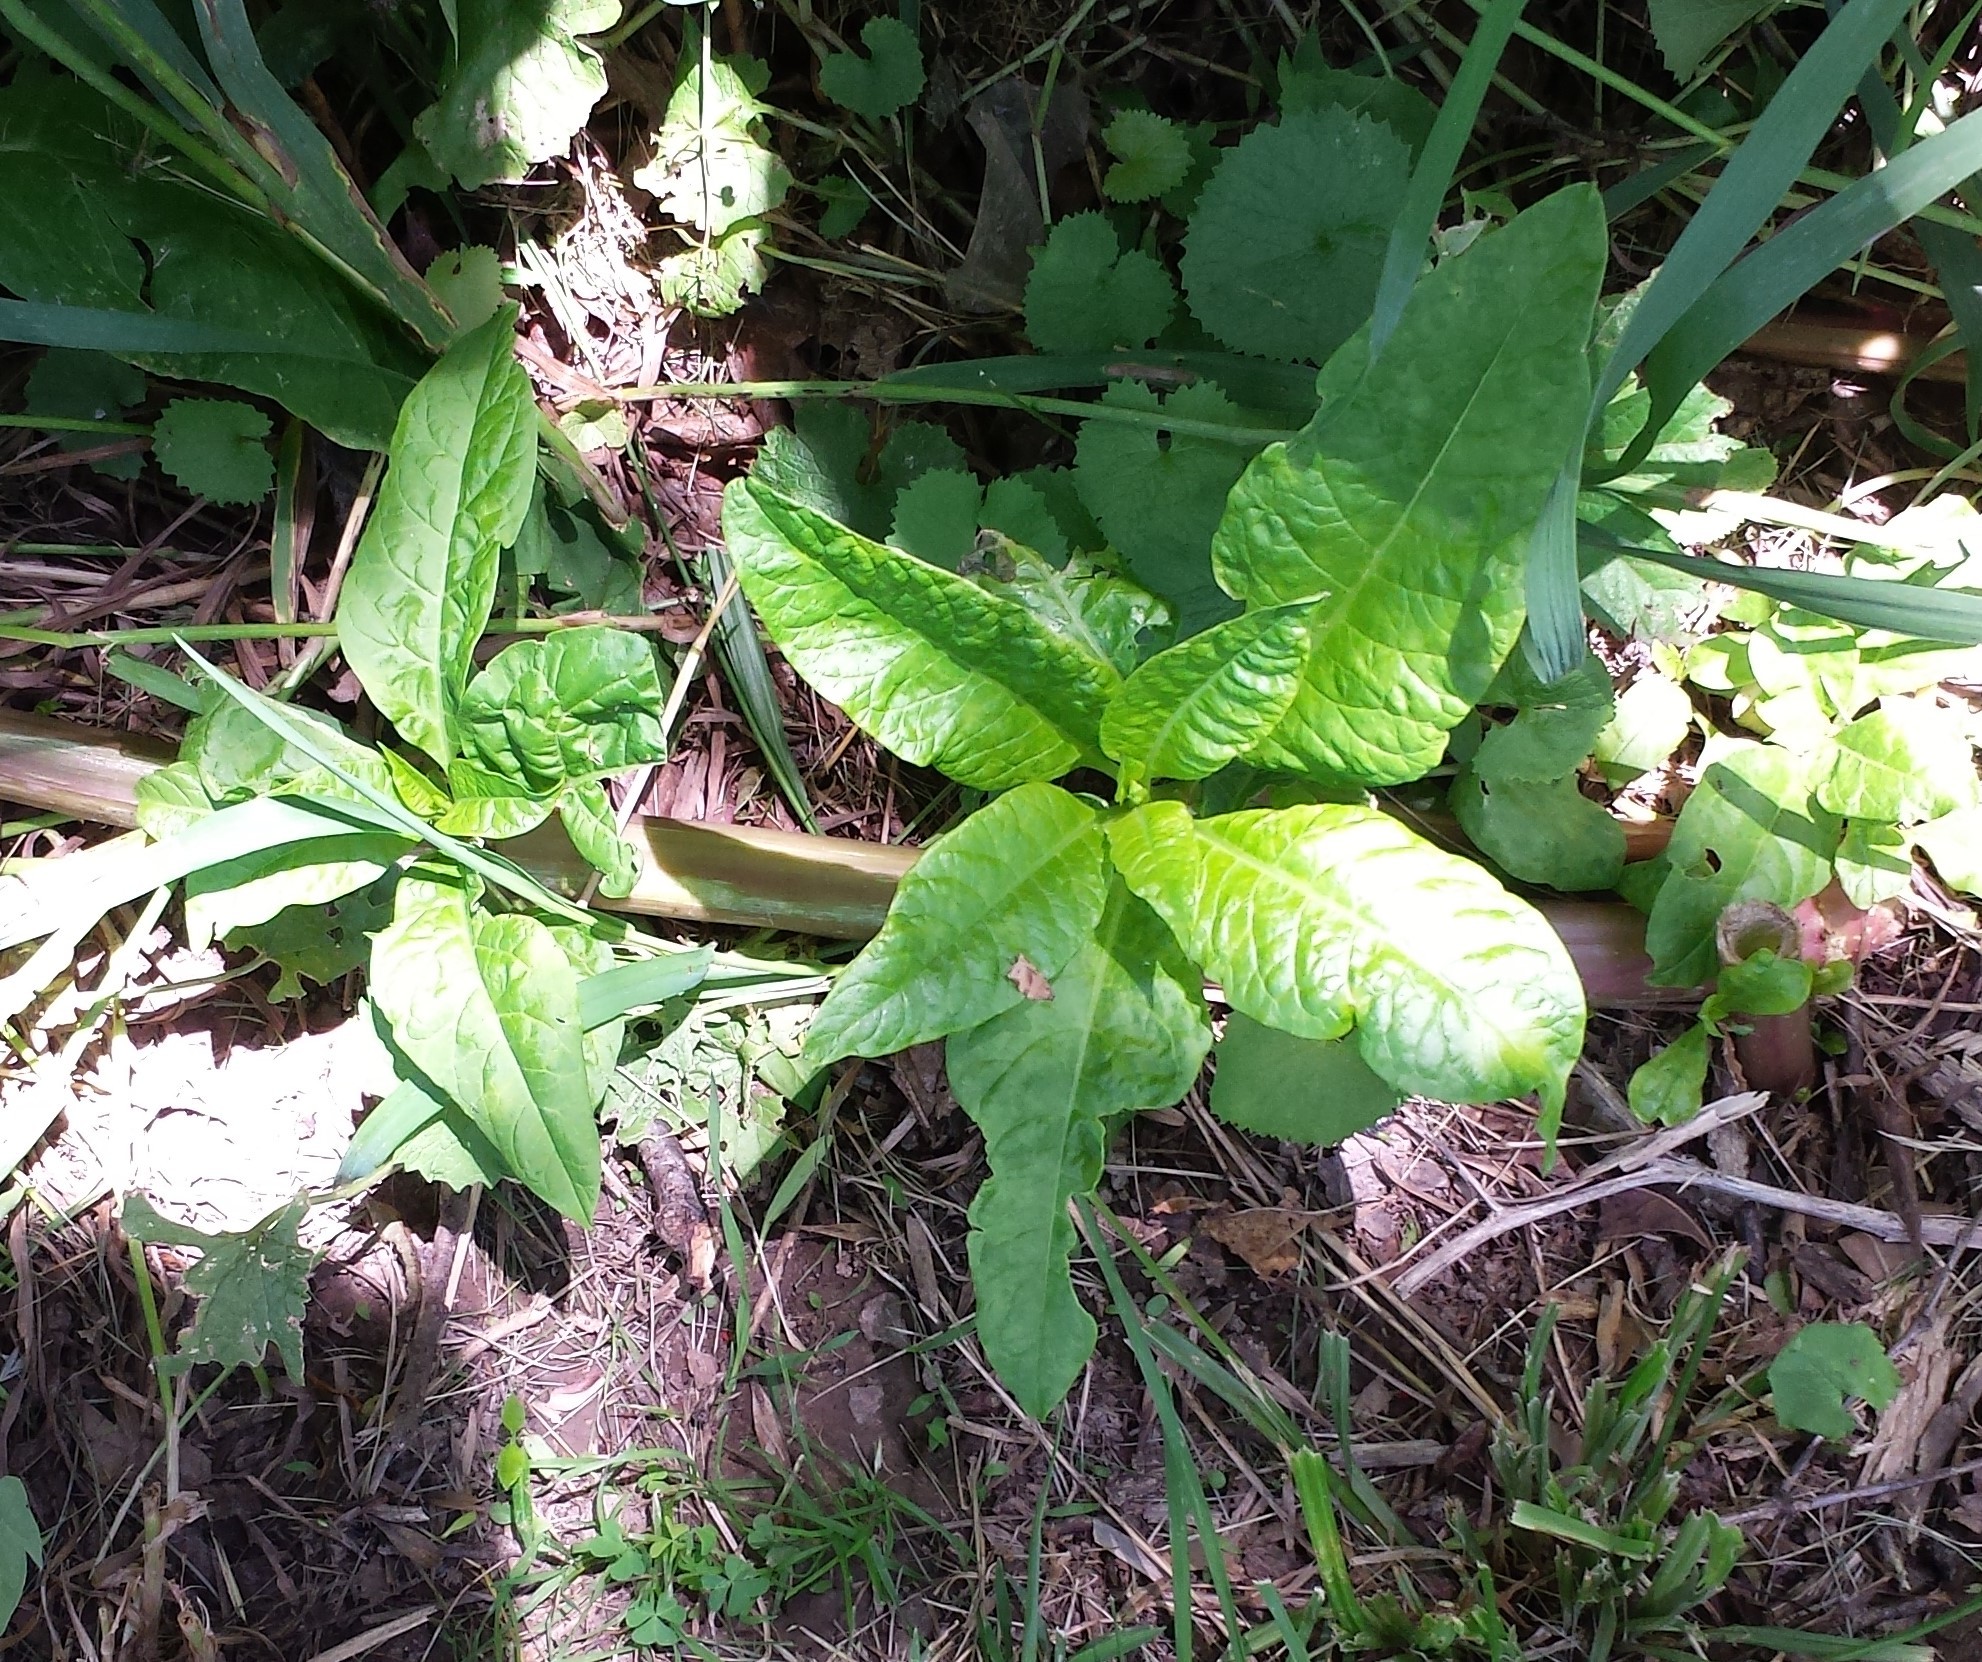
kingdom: Plantae
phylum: Tracheophyta
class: Magnoliopsida
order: Caryophyllales
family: Phytolaccaceae
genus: Phytolacca
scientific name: Phytolacca americana
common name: American pokeweed
